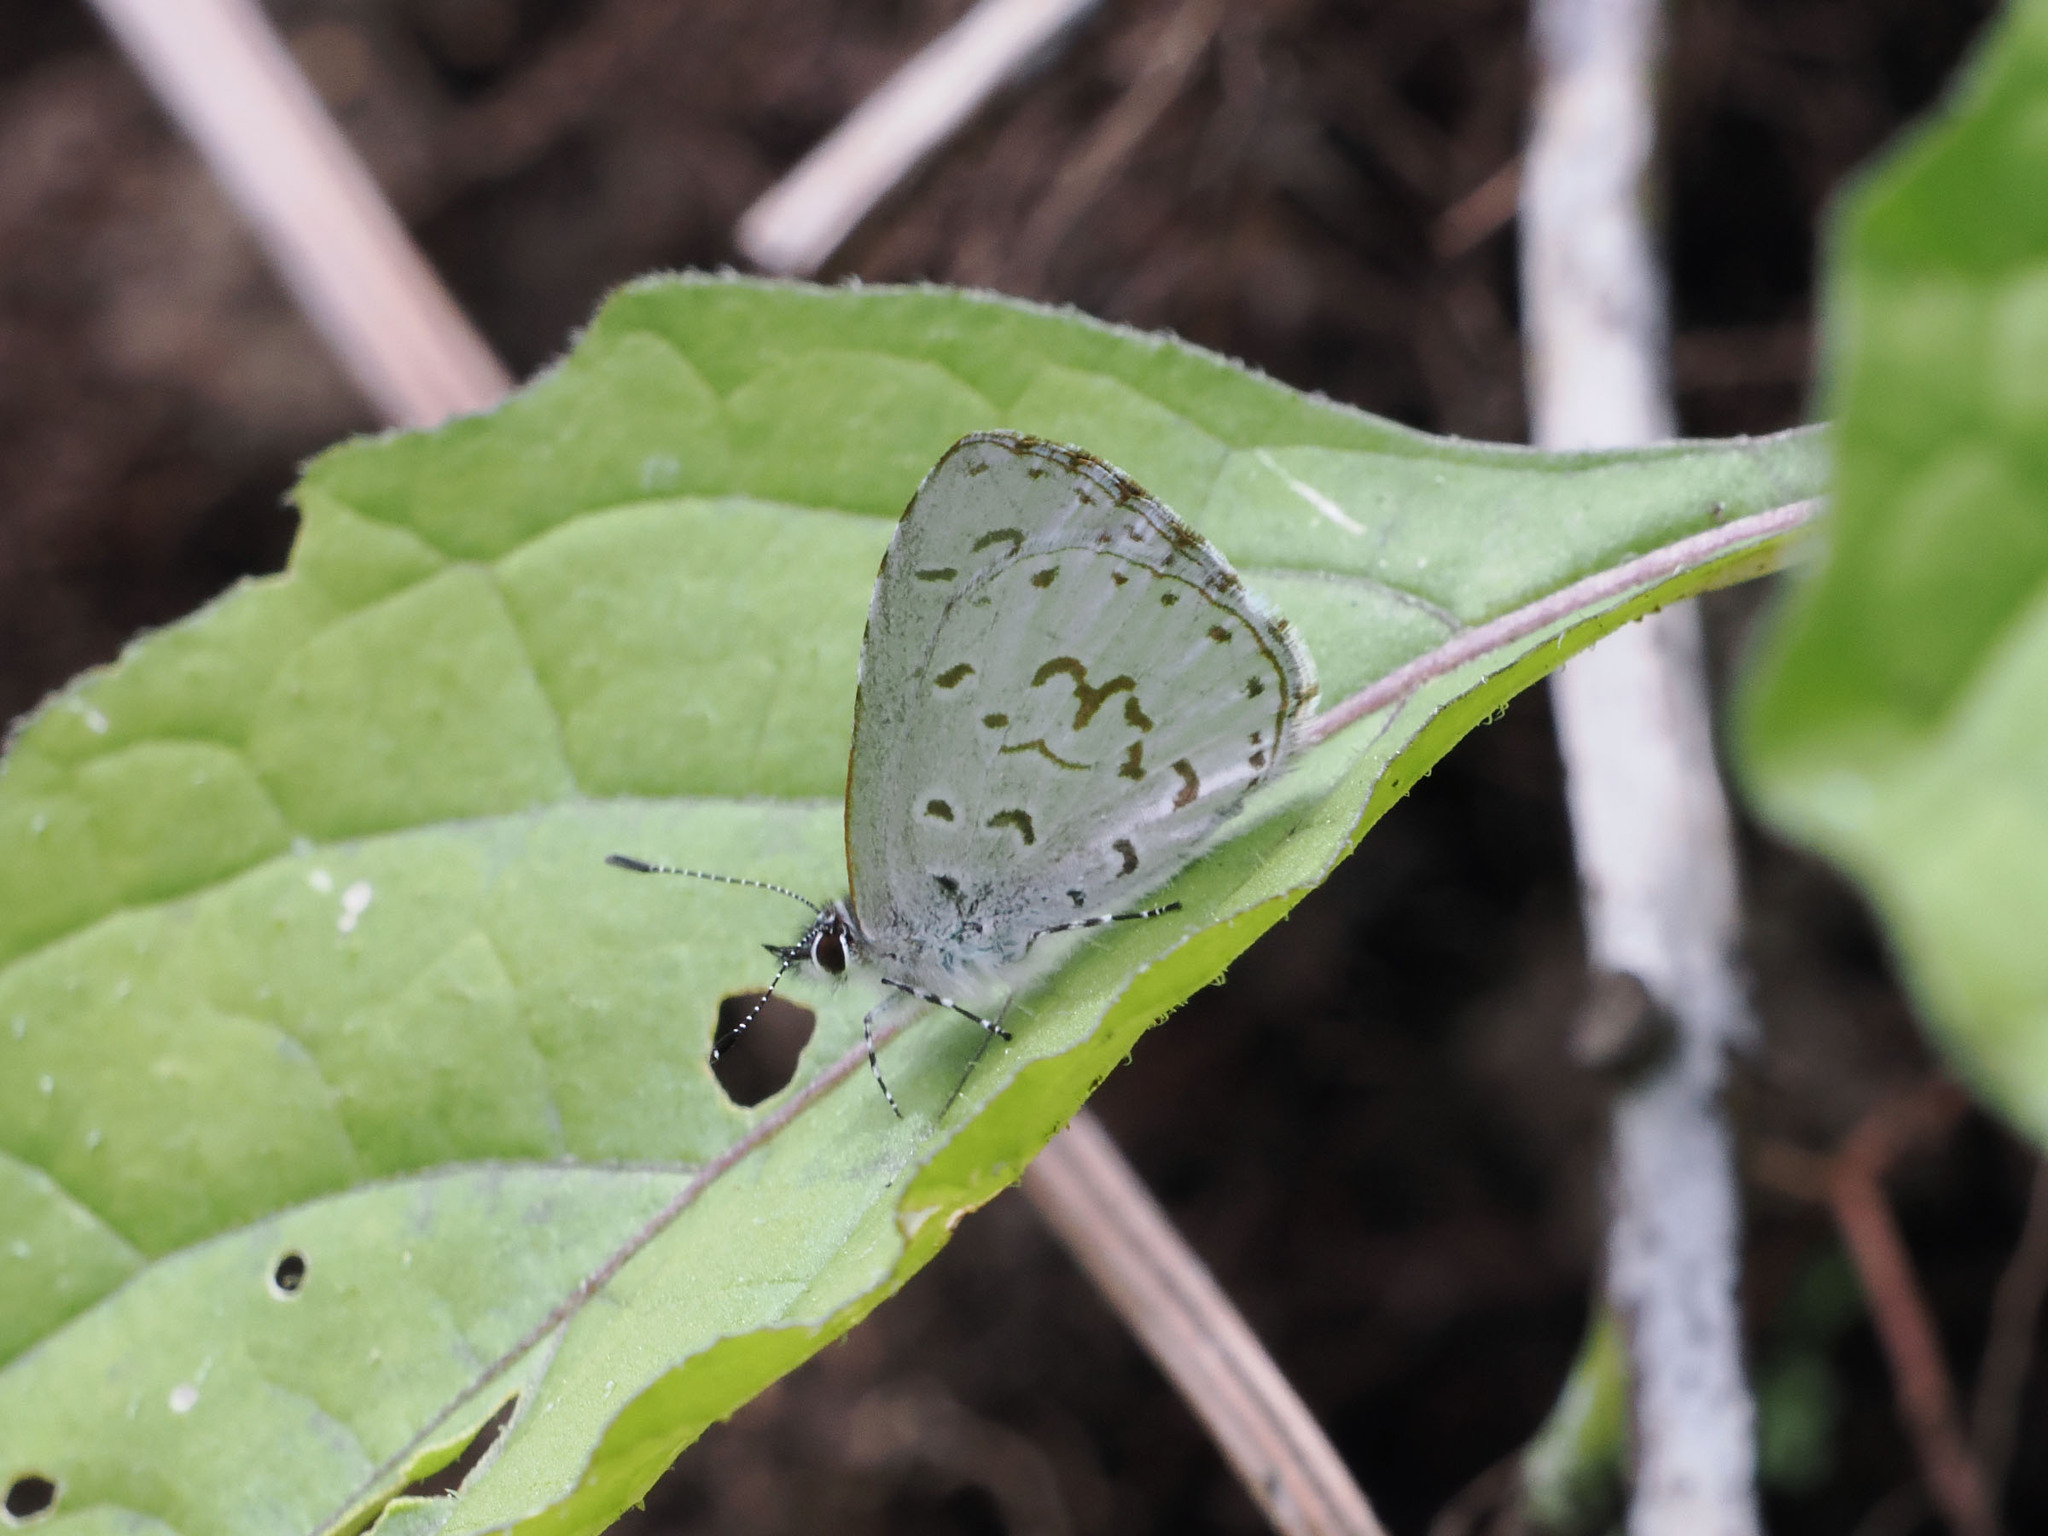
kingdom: Animalia
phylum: Arthropoda
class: Insecta
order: Lepidoptera
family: Lycaenidae
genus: Udara
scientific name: Udara drucei
